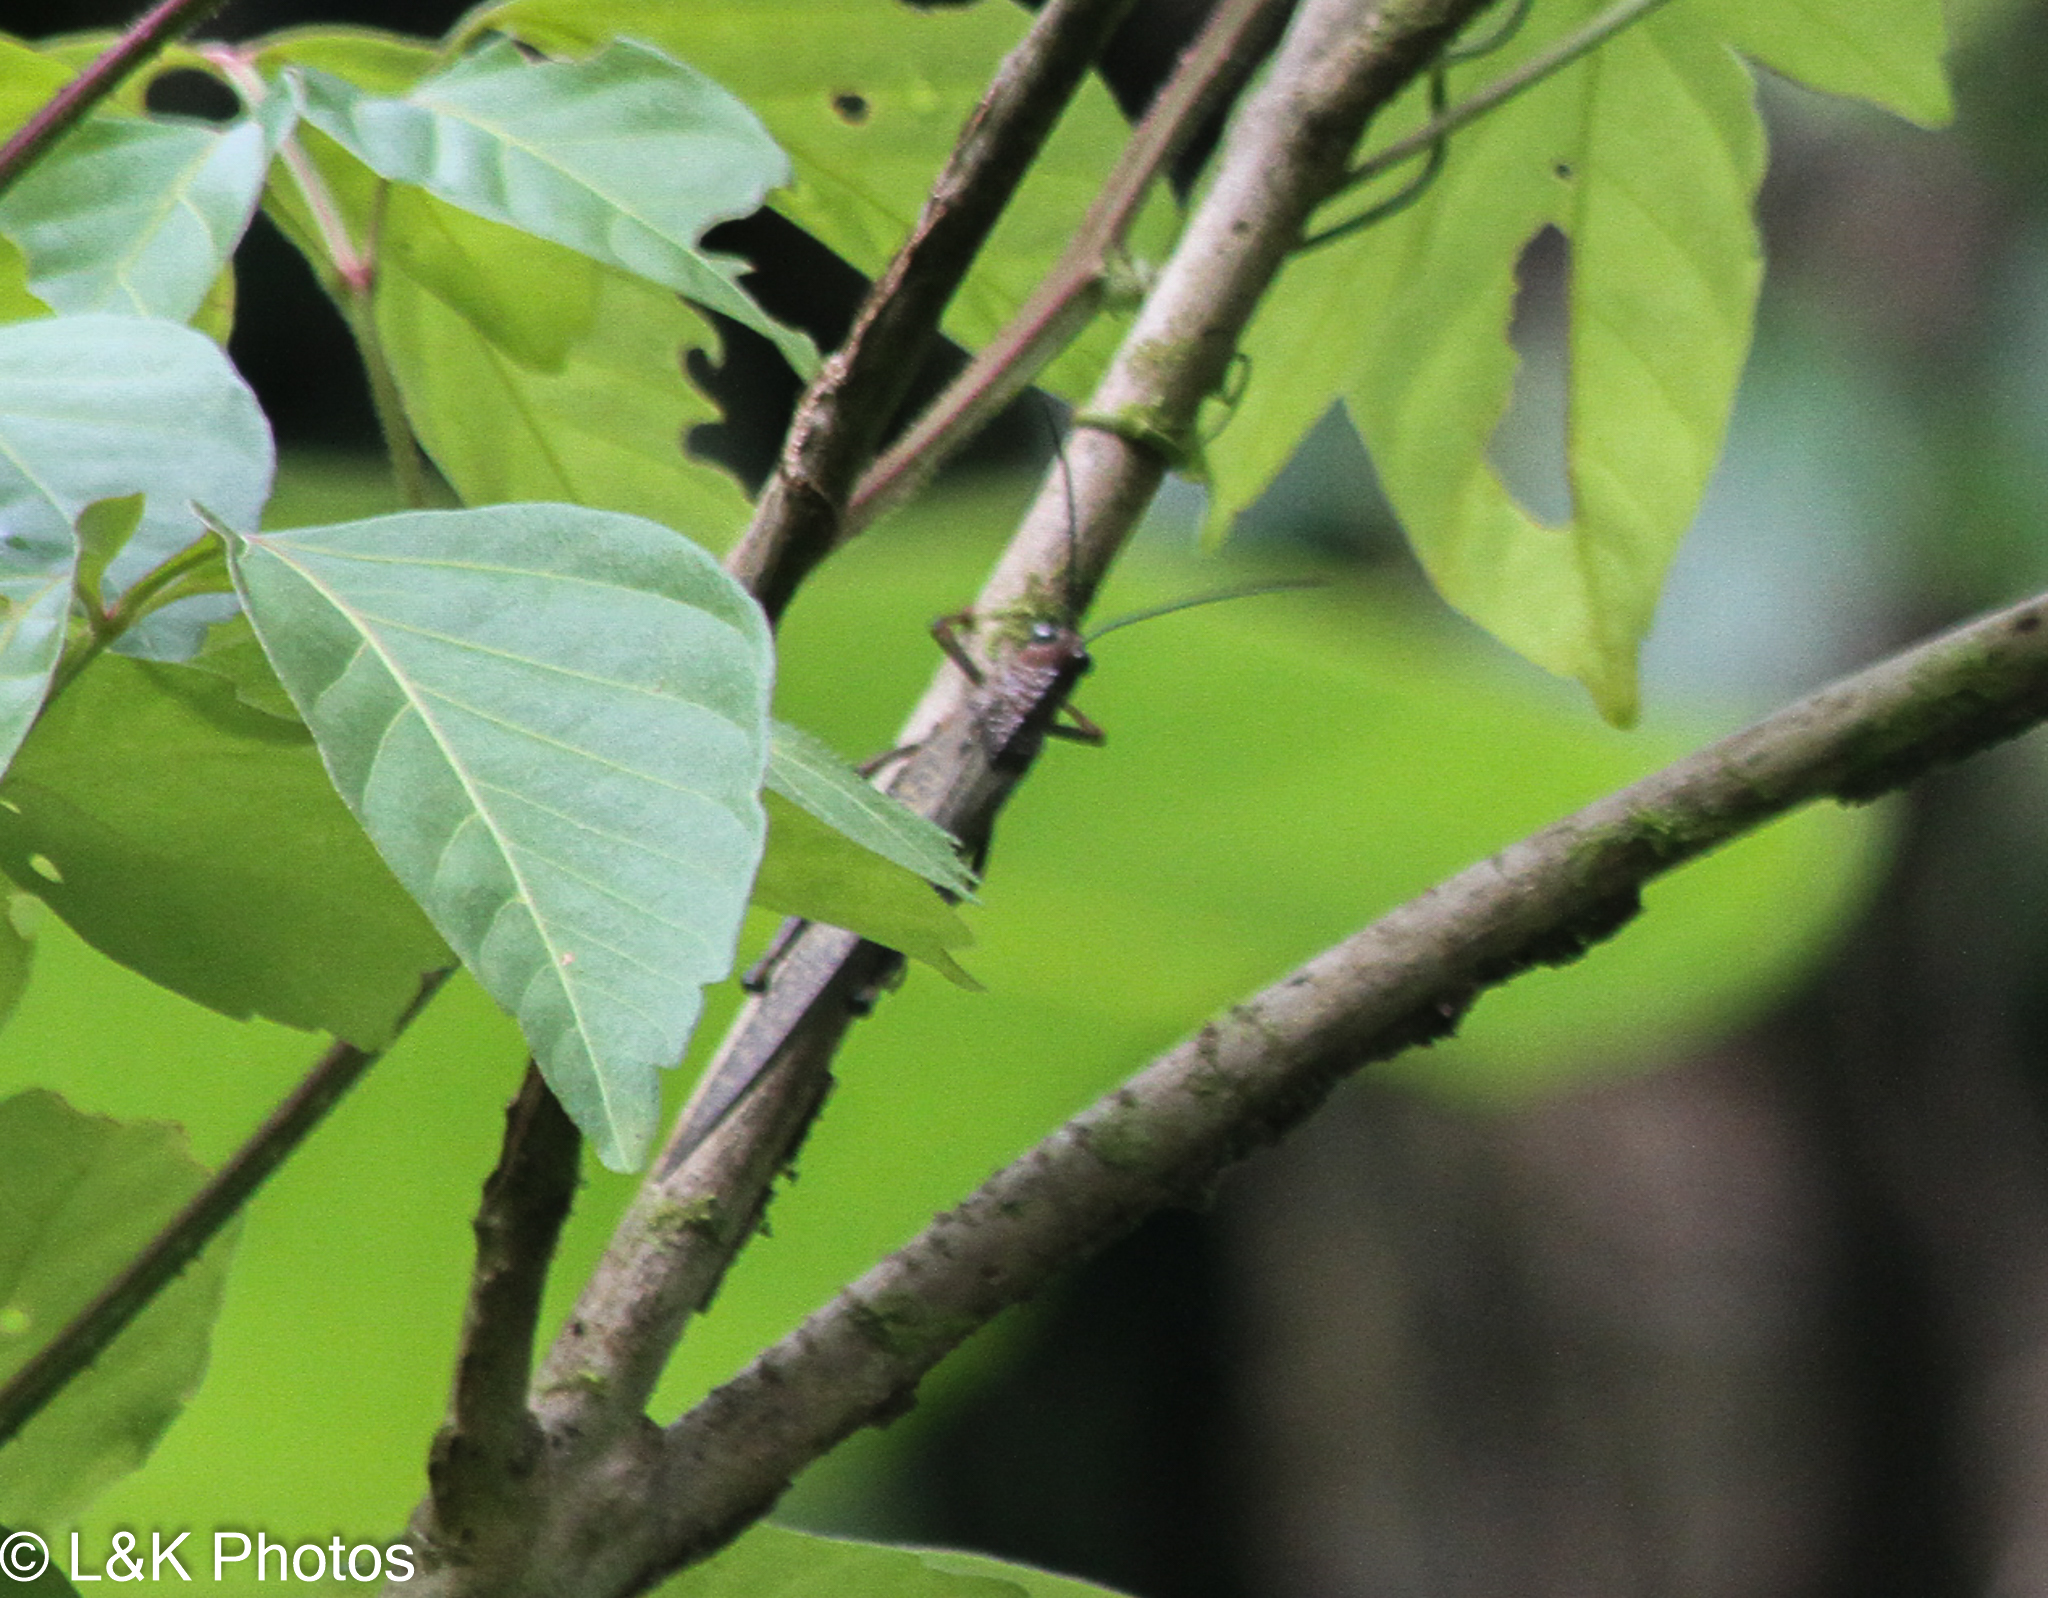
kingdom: Animalia
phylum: Arthropoda
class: Insecta
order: Orthoptera
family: Romaleidae
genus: Tropidacris
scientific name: Tropidacris cristata
